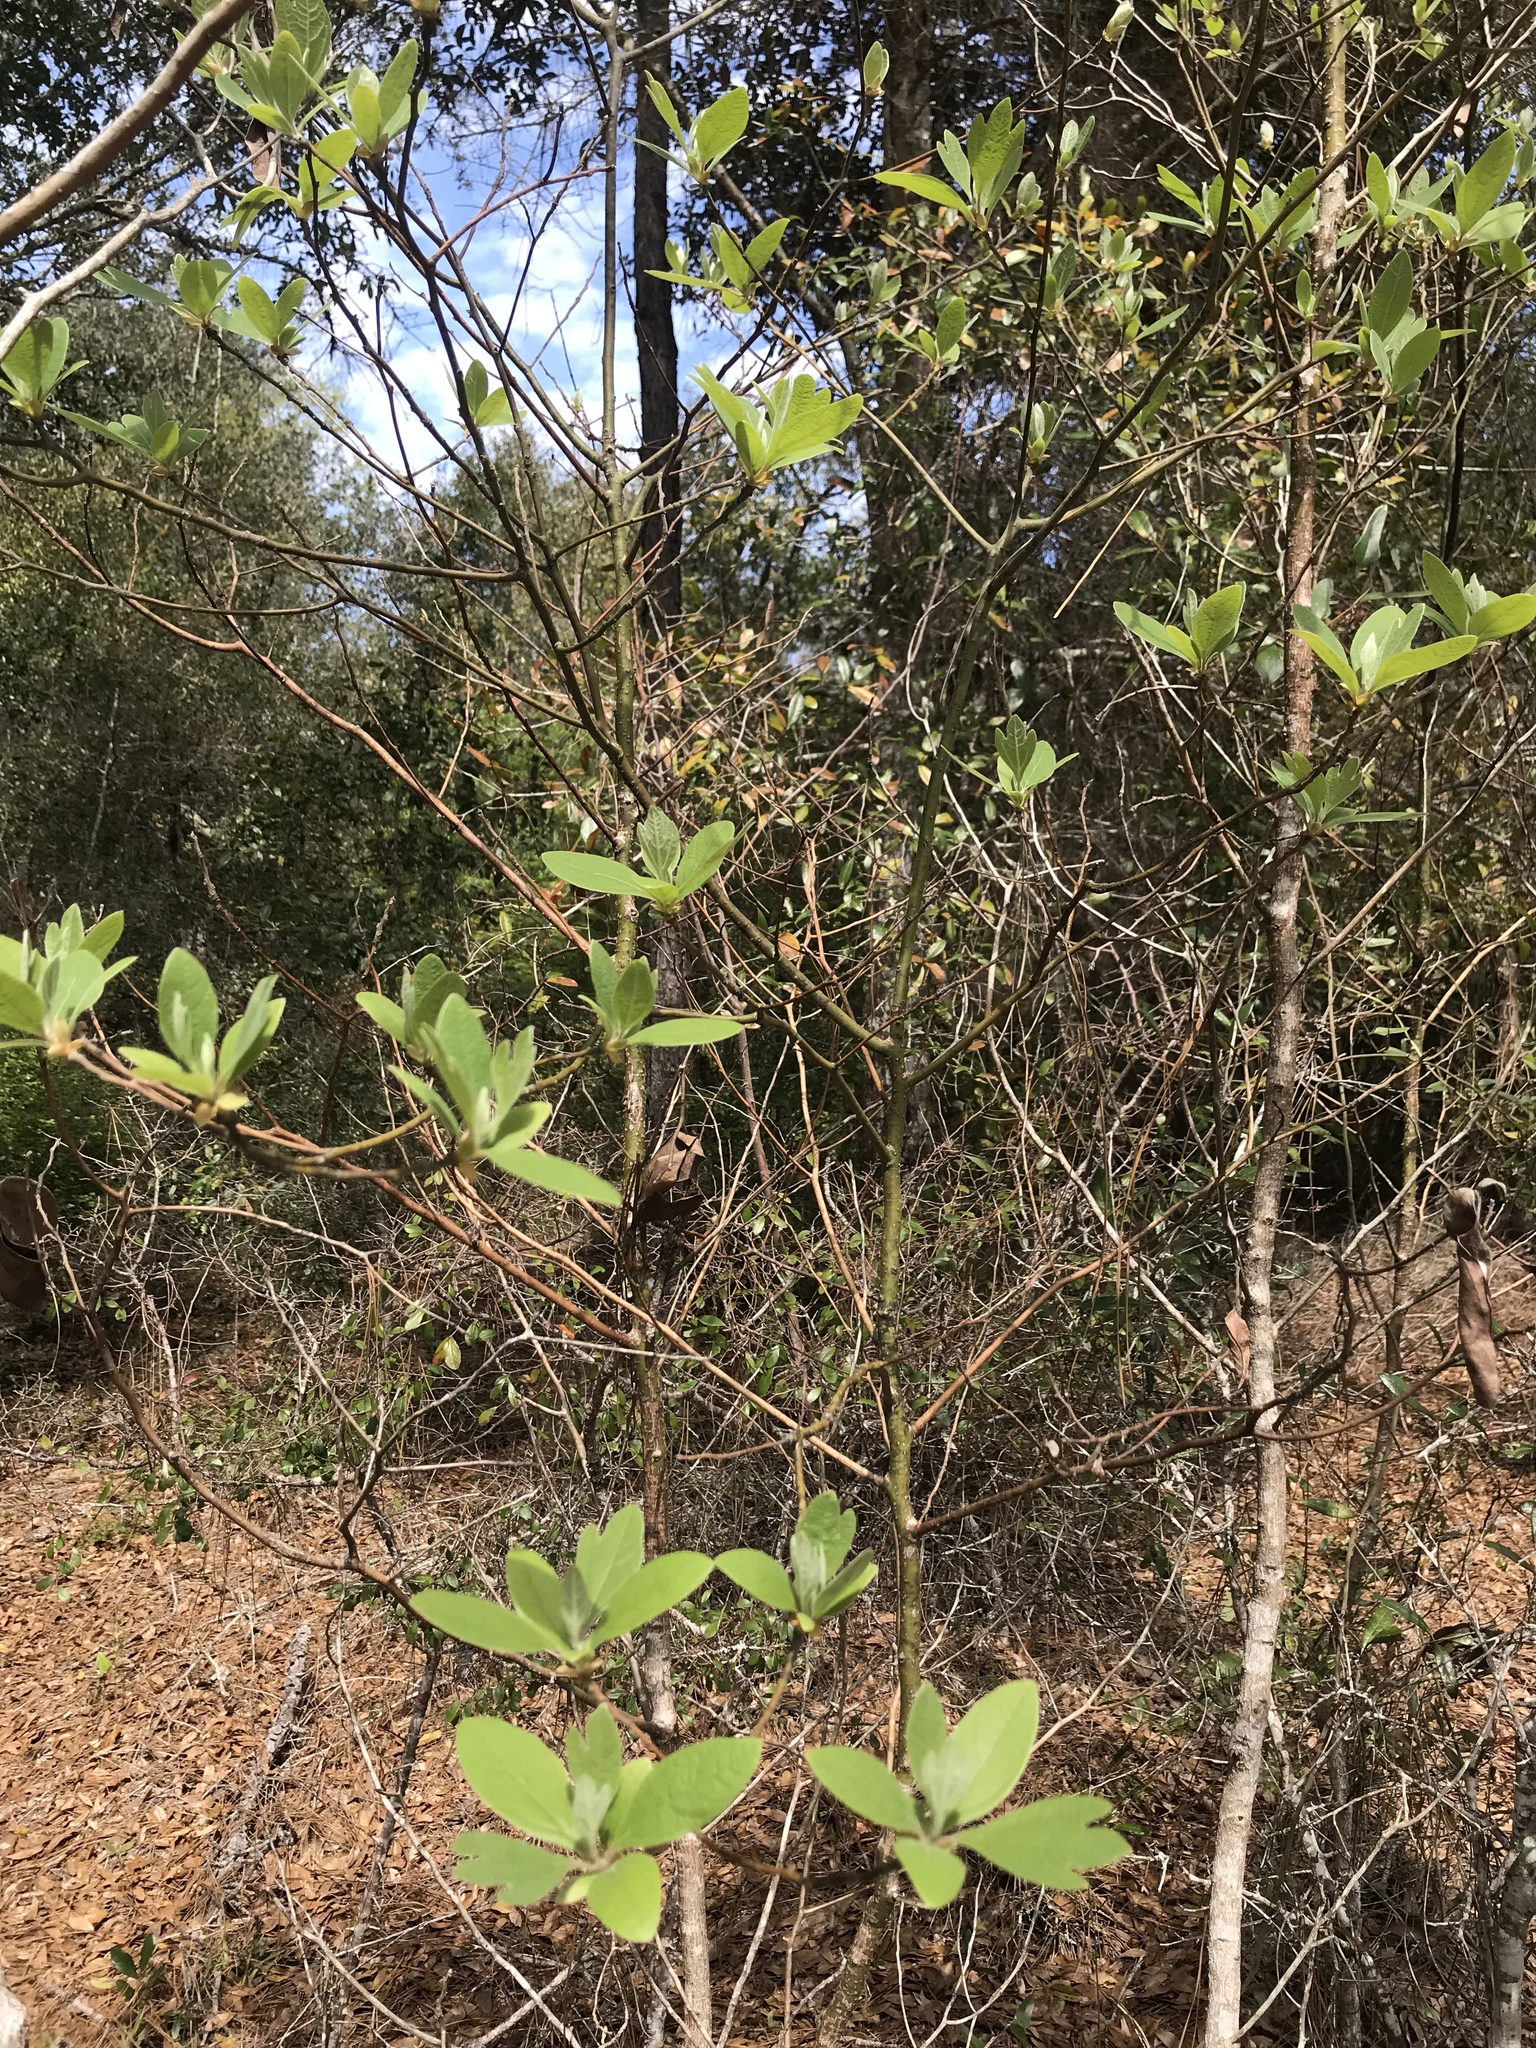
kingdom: Plantae
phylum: Tracheophyta
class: Magnoliopsida
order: Laurales
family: Lauraceae
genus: Sassafras
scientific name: Sassafras albidum
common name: Sassafras
